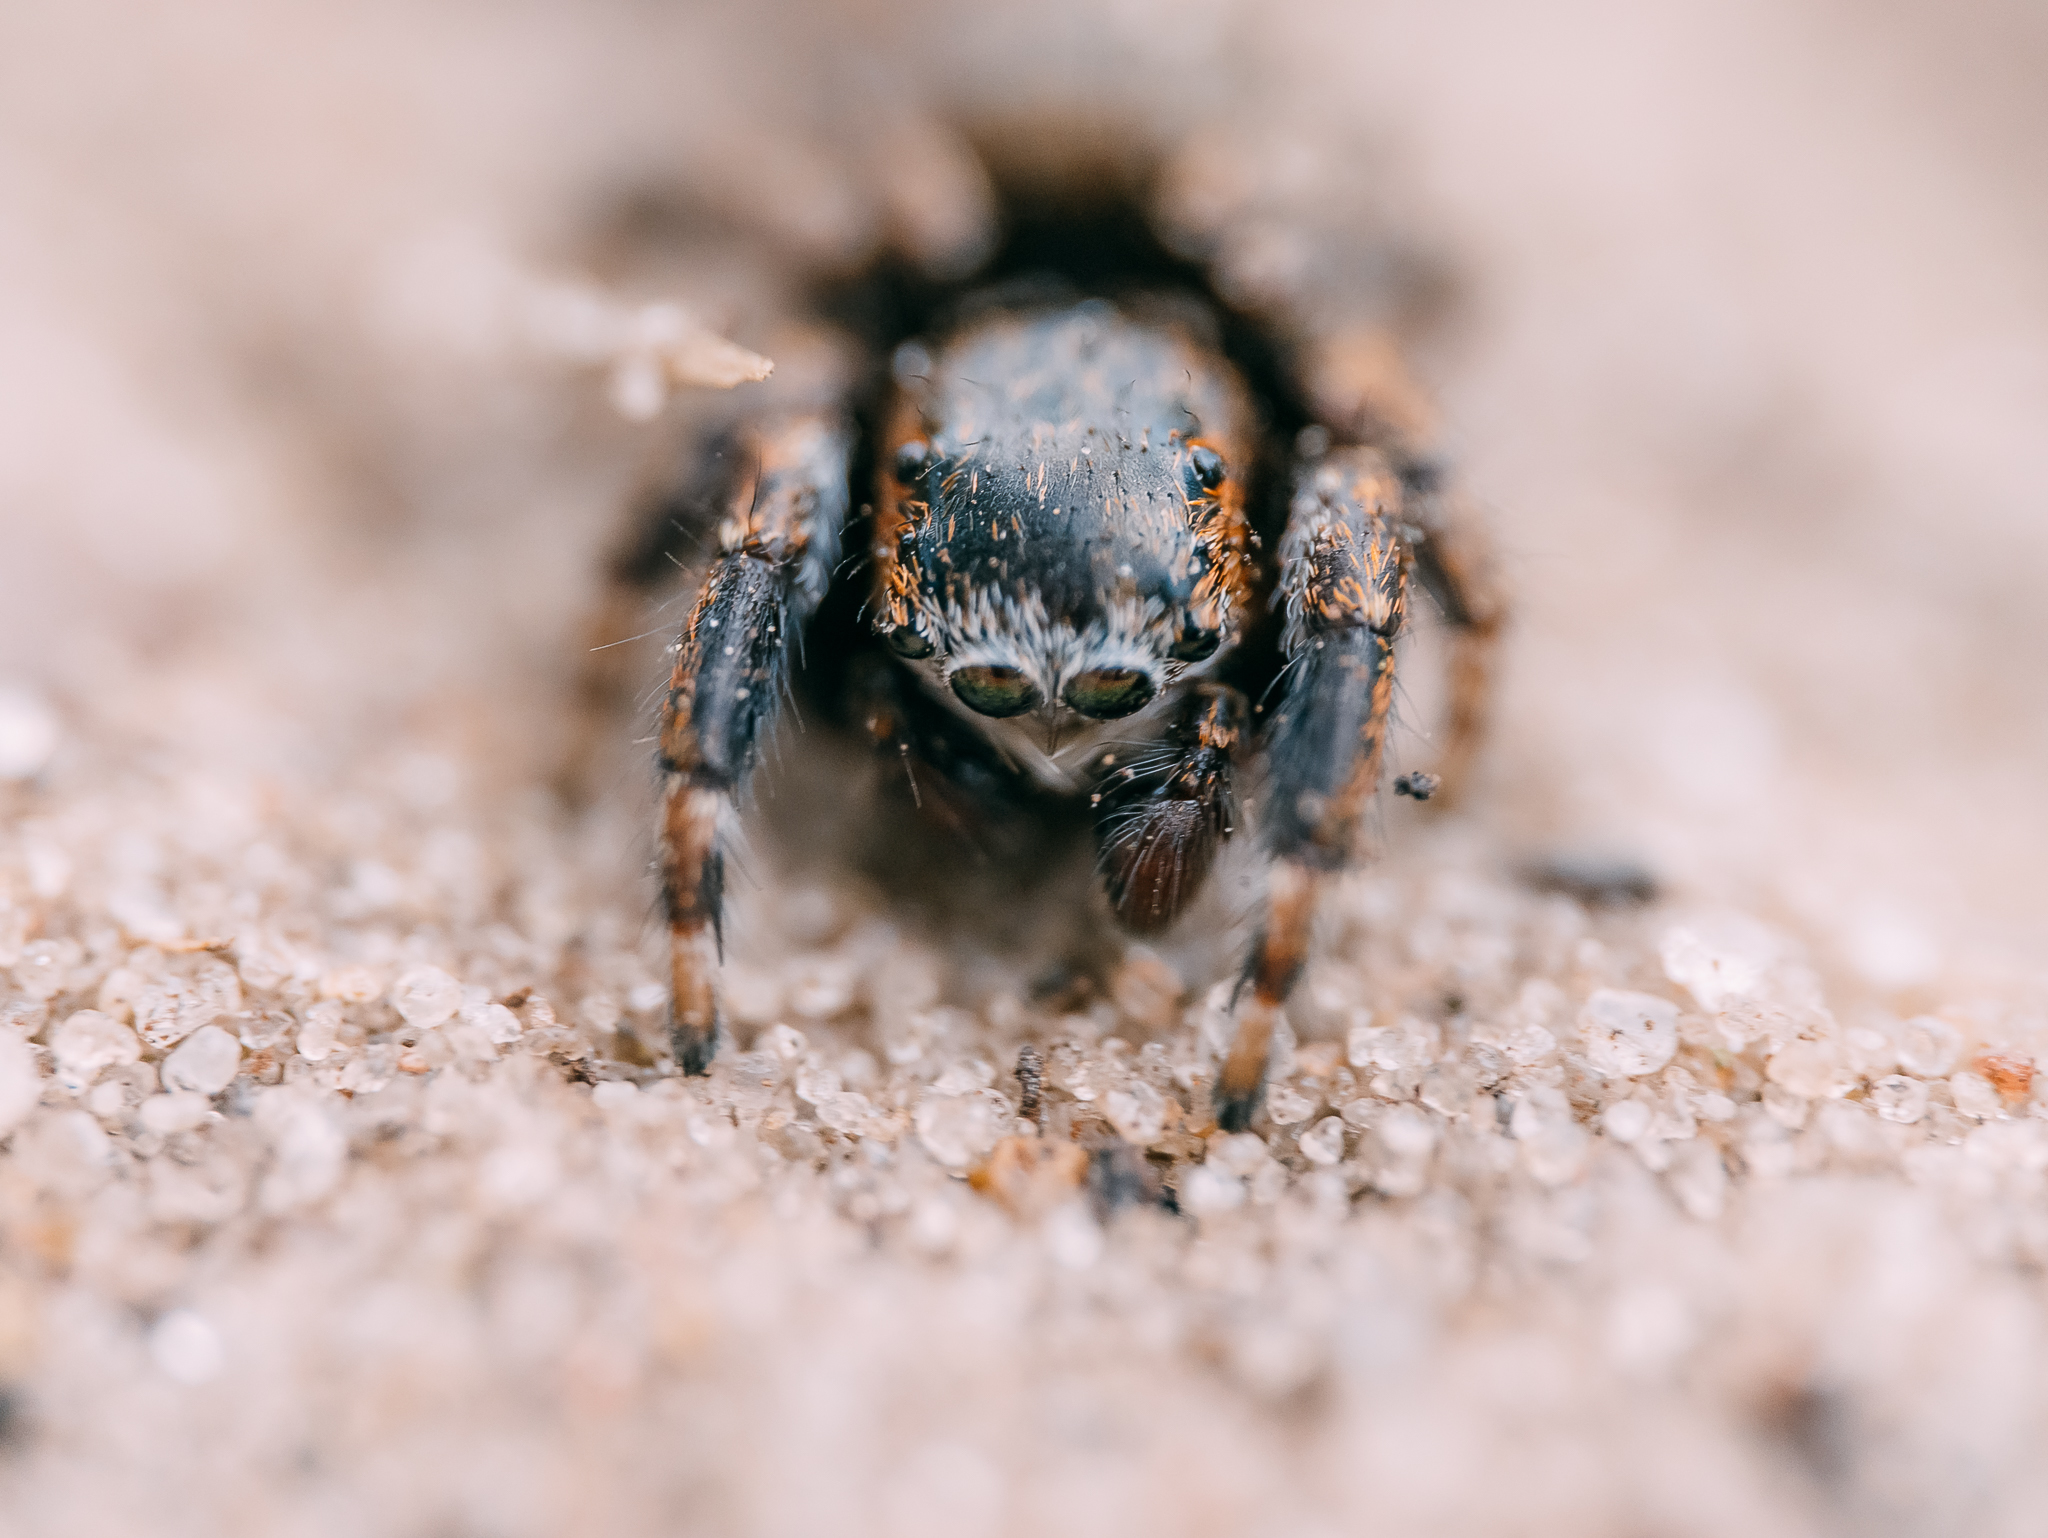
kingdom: Animalia
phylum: Arthropoda
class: Arachnida
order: Araneae
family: Salticidae
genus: Evarcha
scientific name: Evarcha arcuata
